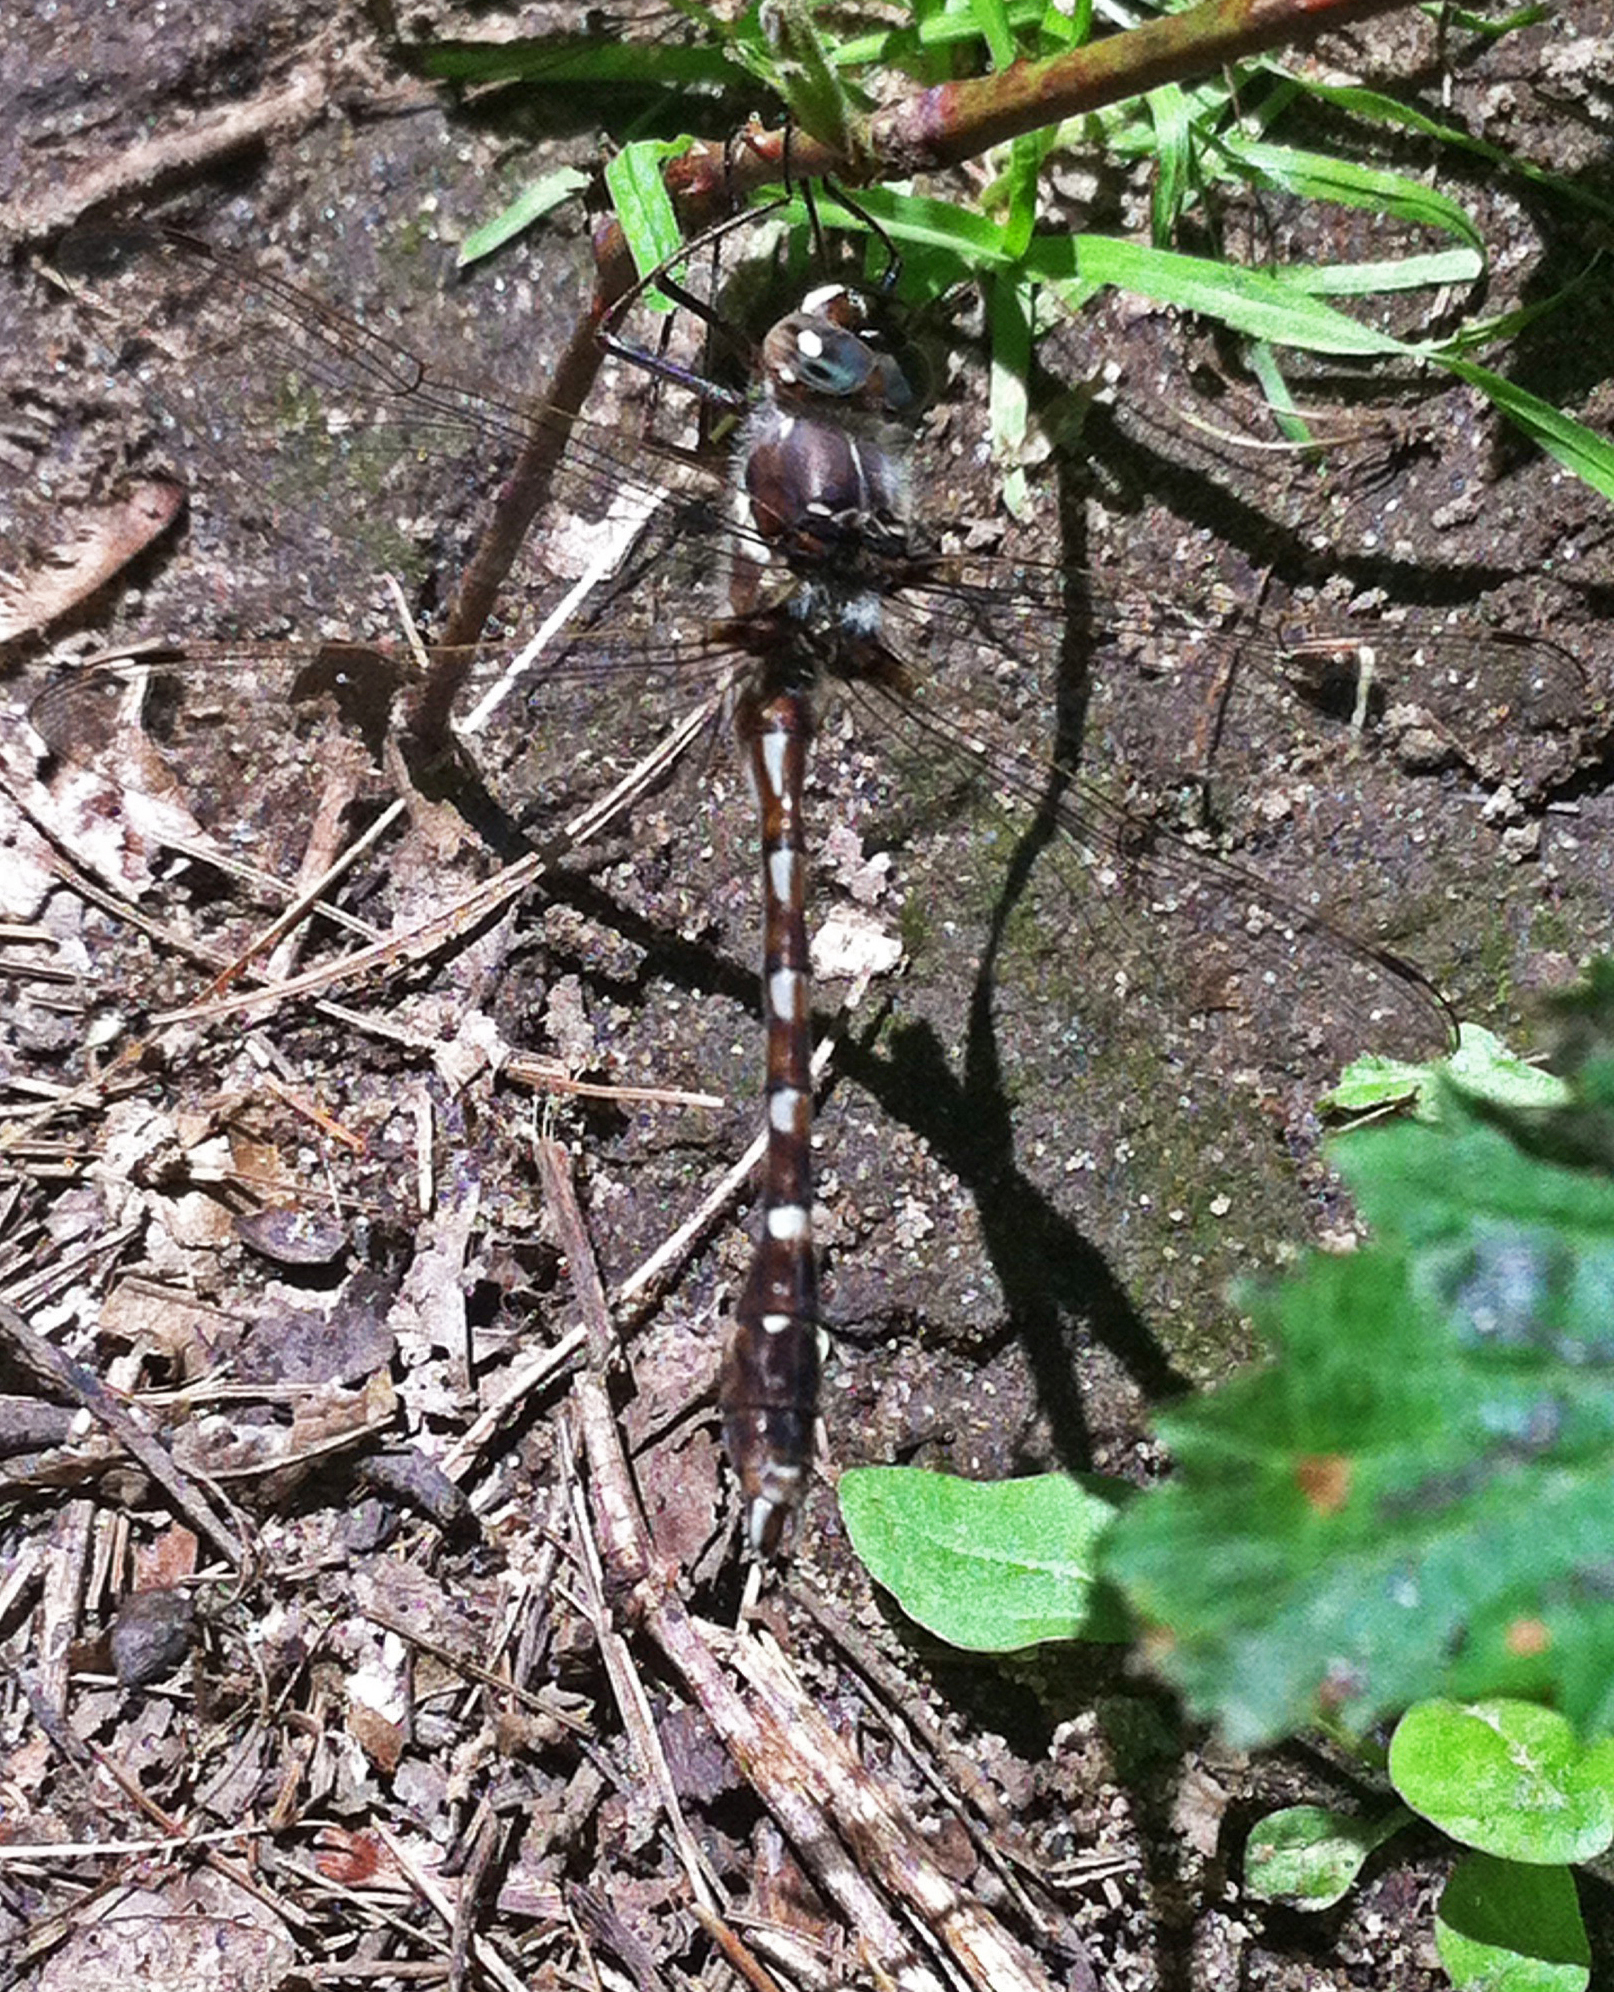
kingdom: Animalia
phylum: Arthropoda
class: Insecta
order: Odonata
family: Macromiidae
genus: Didymops
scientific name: Didymops transversa
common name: Stream cruiser
